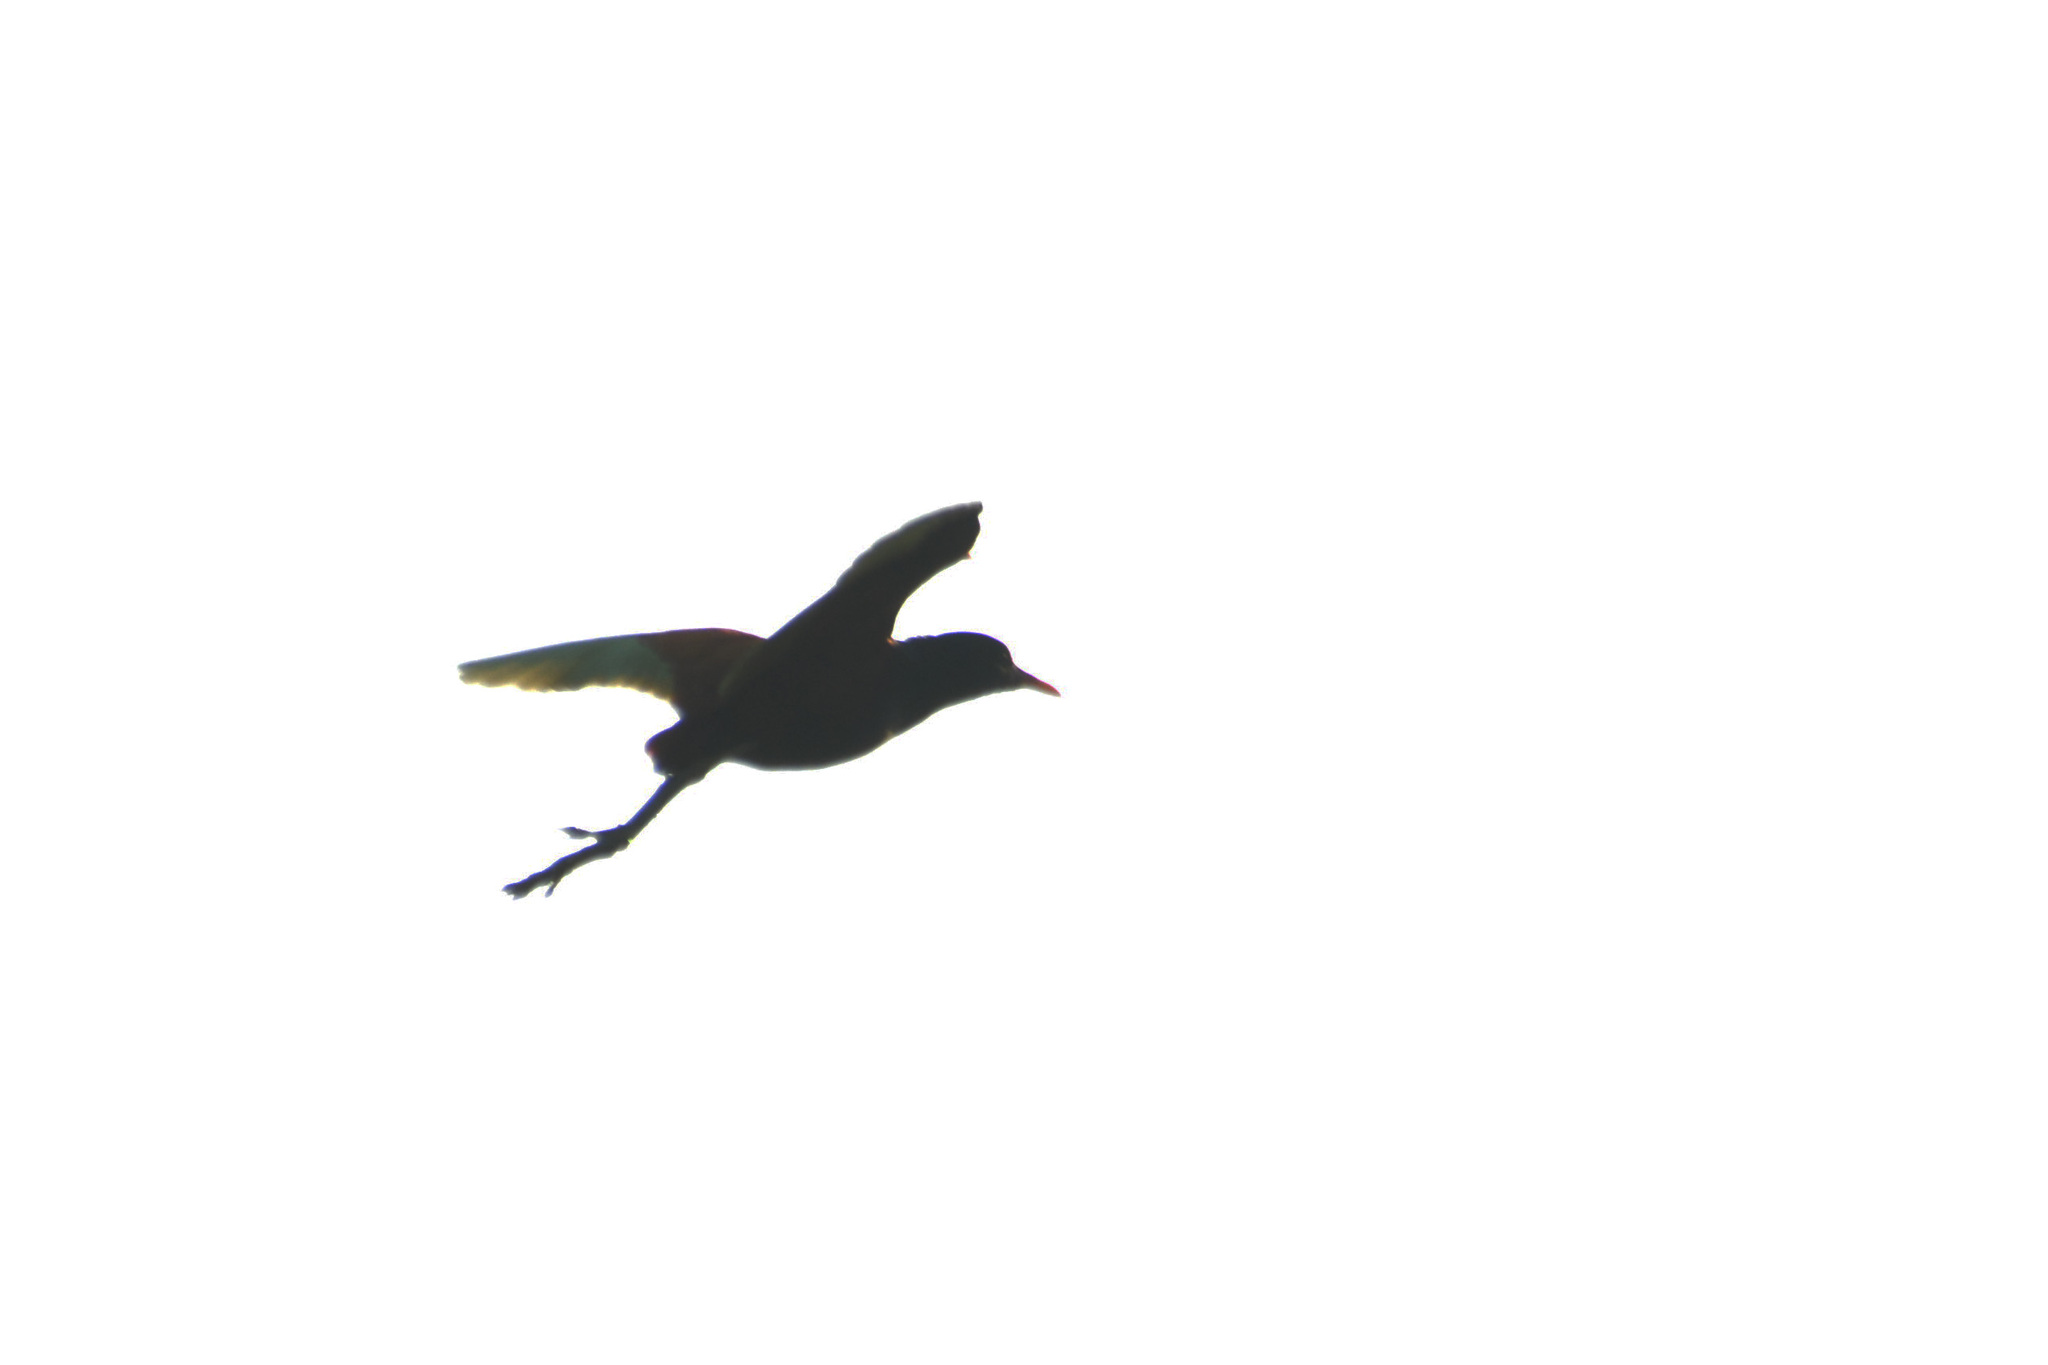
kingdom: Animalia
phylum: Chordata
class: Aves
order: Charadriiformes
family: Jacanidae
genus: Jacana
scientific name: Jacana jacana
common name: Wattled jacana
